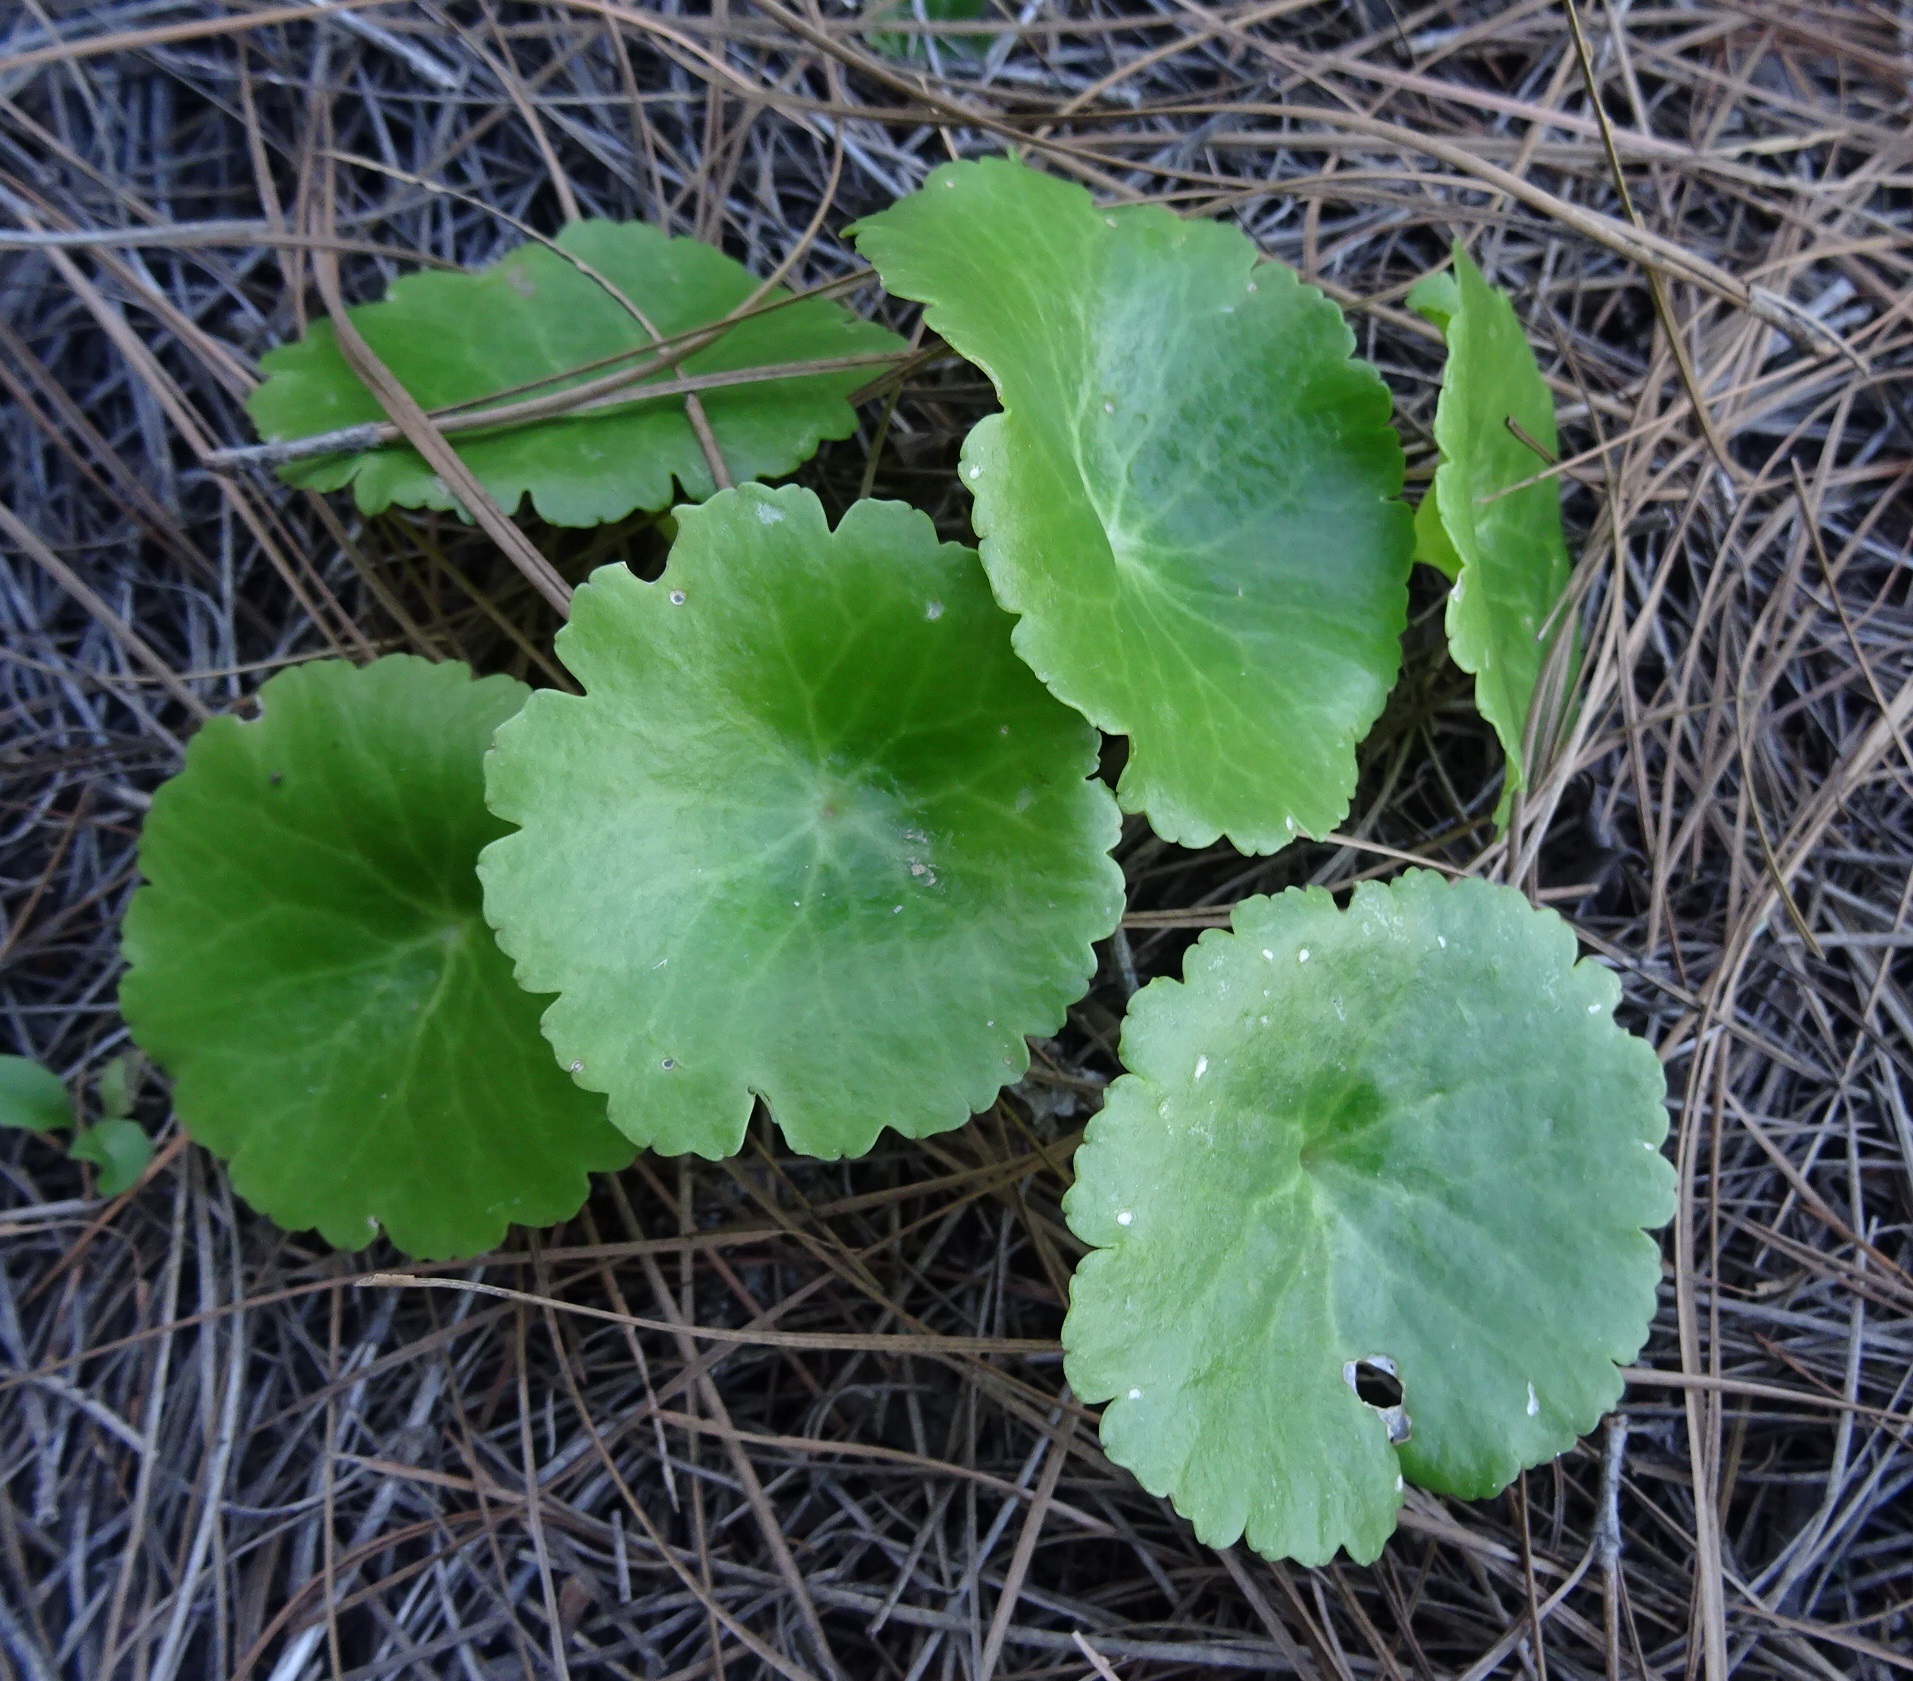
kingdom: Plantae
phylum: Tracheophyta
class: Magnoliopsida
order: Saxifragales
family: Crassulaceae
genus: Umbilicus
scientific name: Umbilicus horizontalis
